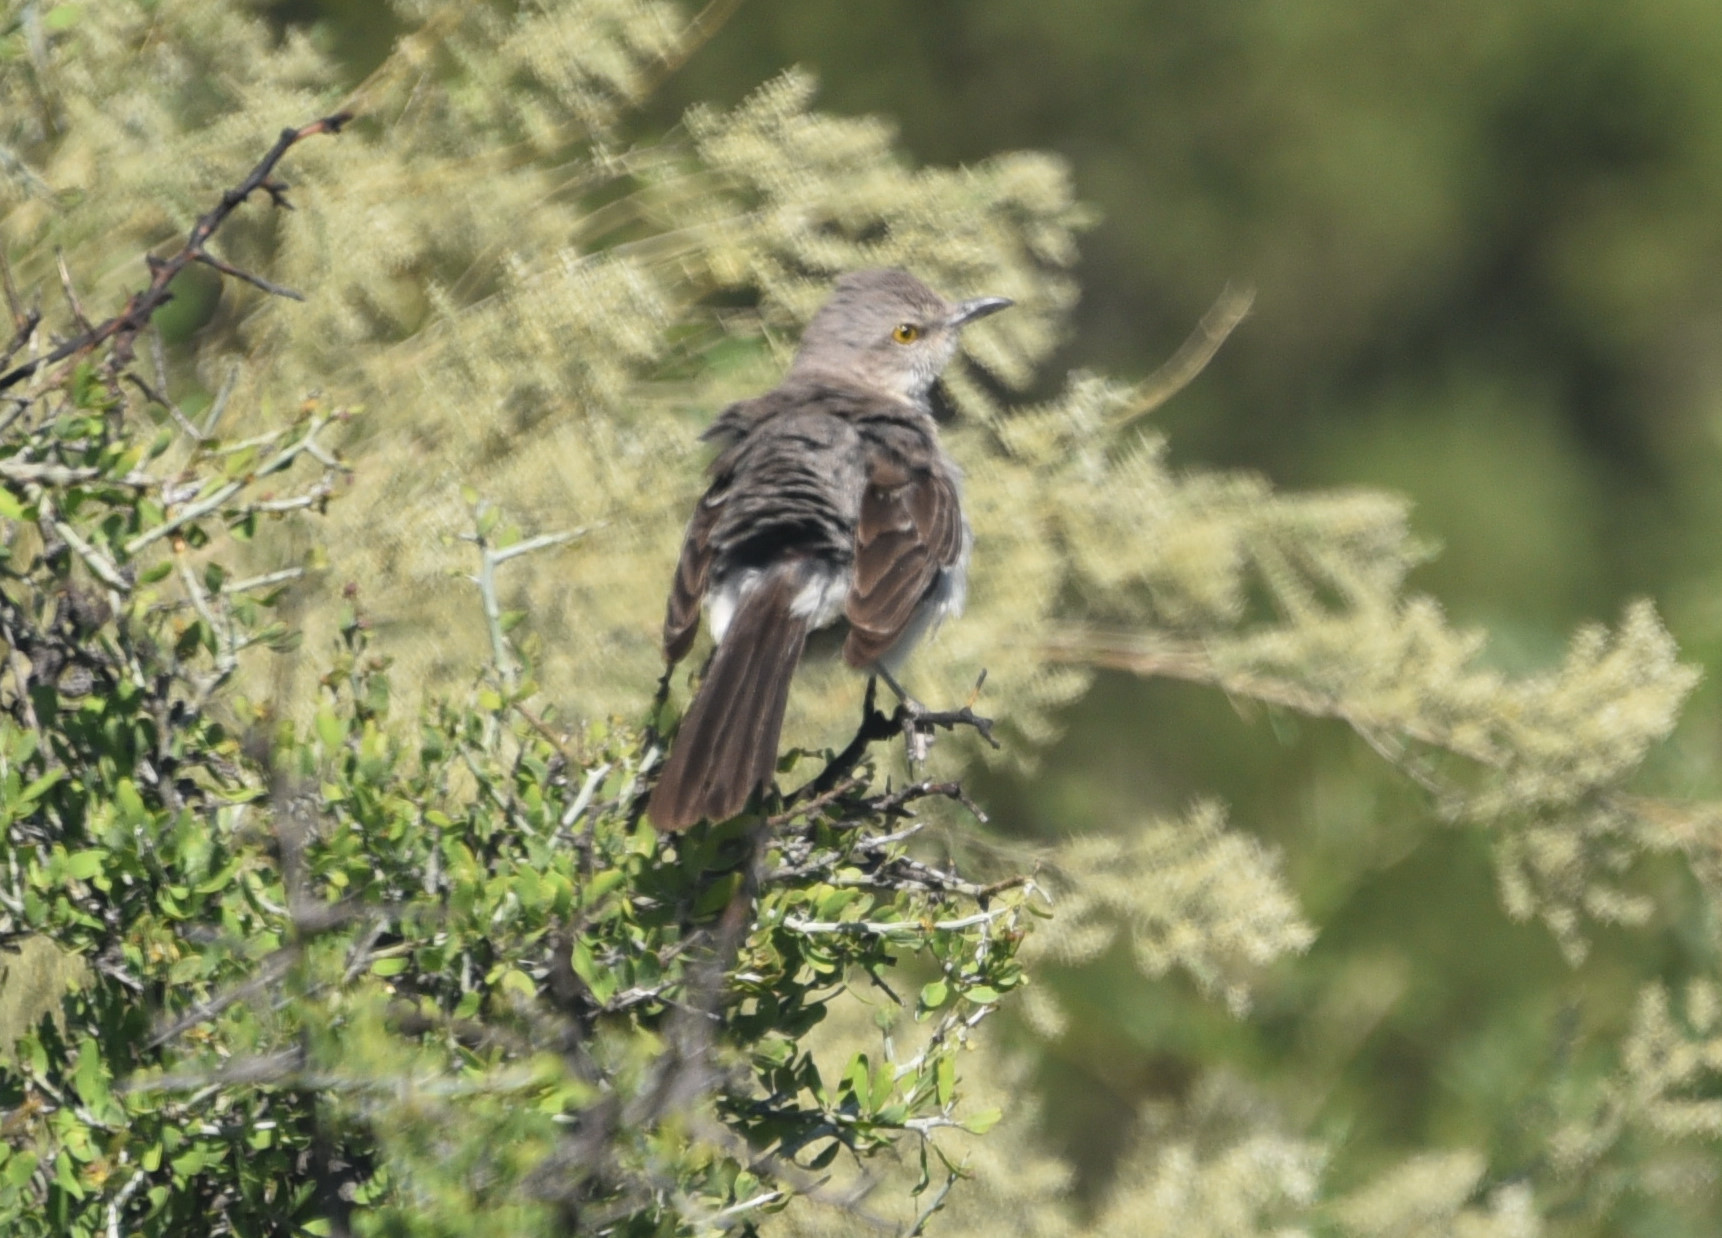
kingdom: Animalia
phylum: Chordata
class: Aves
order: Passeriformes
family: Mimidae
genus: Mimus
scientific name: Mimus polyglottos
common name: Northern mockingbird
